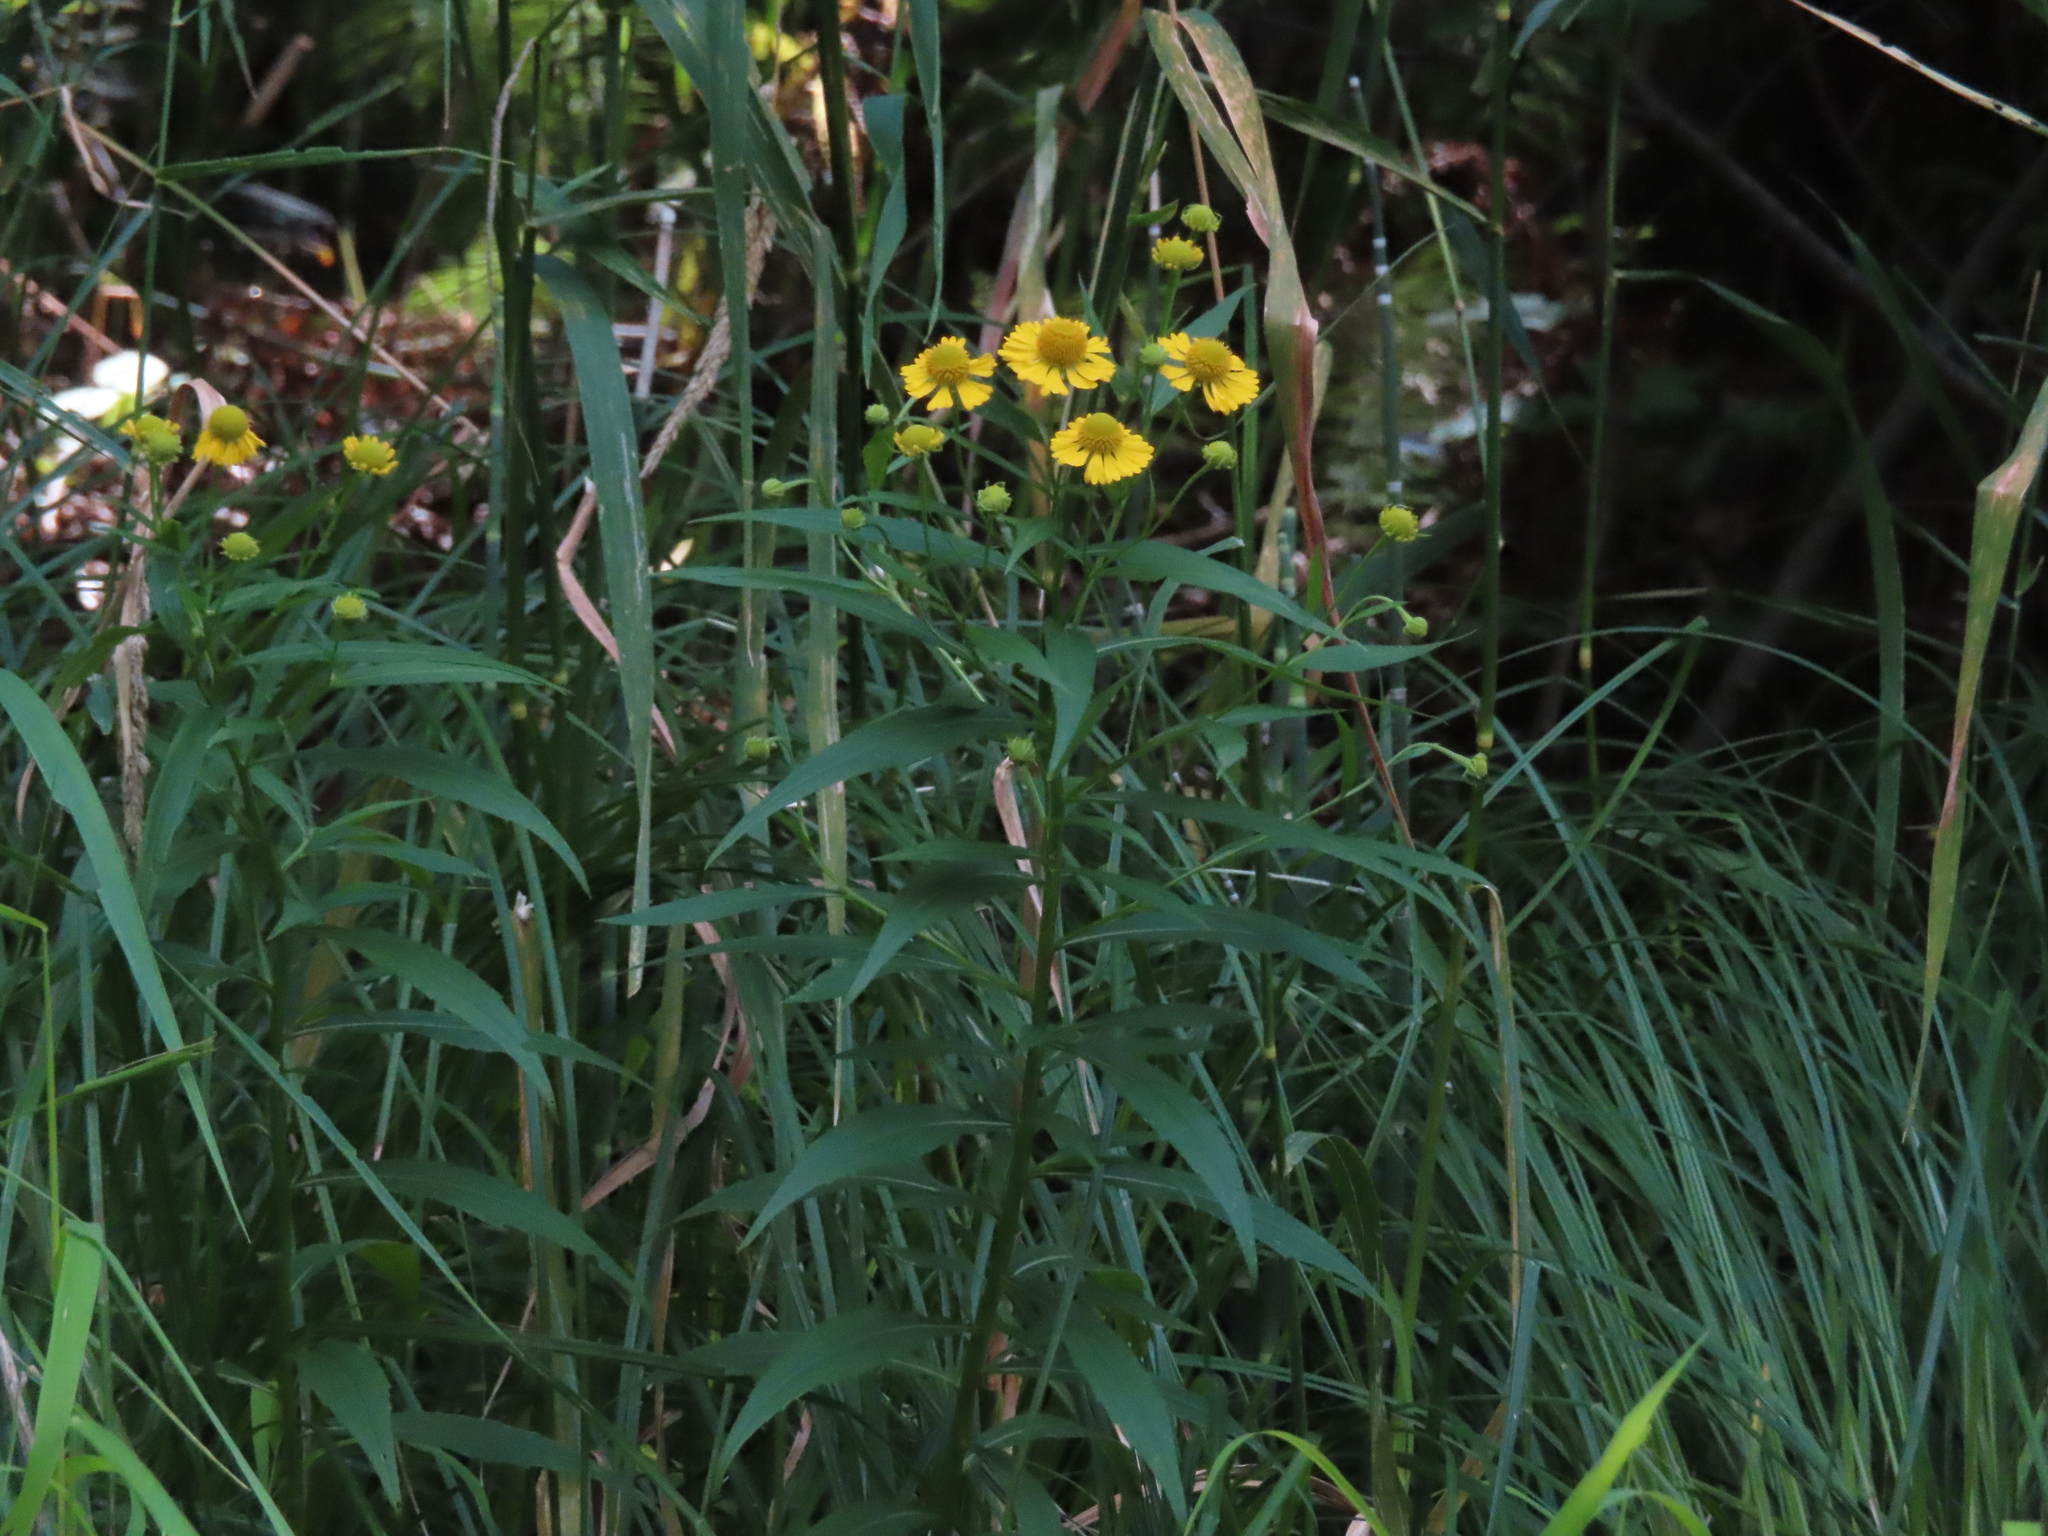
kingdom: Plantae
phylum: Tracheophyta
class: Magnoliopsida
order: Asterales
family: Asteraceae
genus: Helenium
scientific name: Helenium autumnale
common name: Sneezeweed
